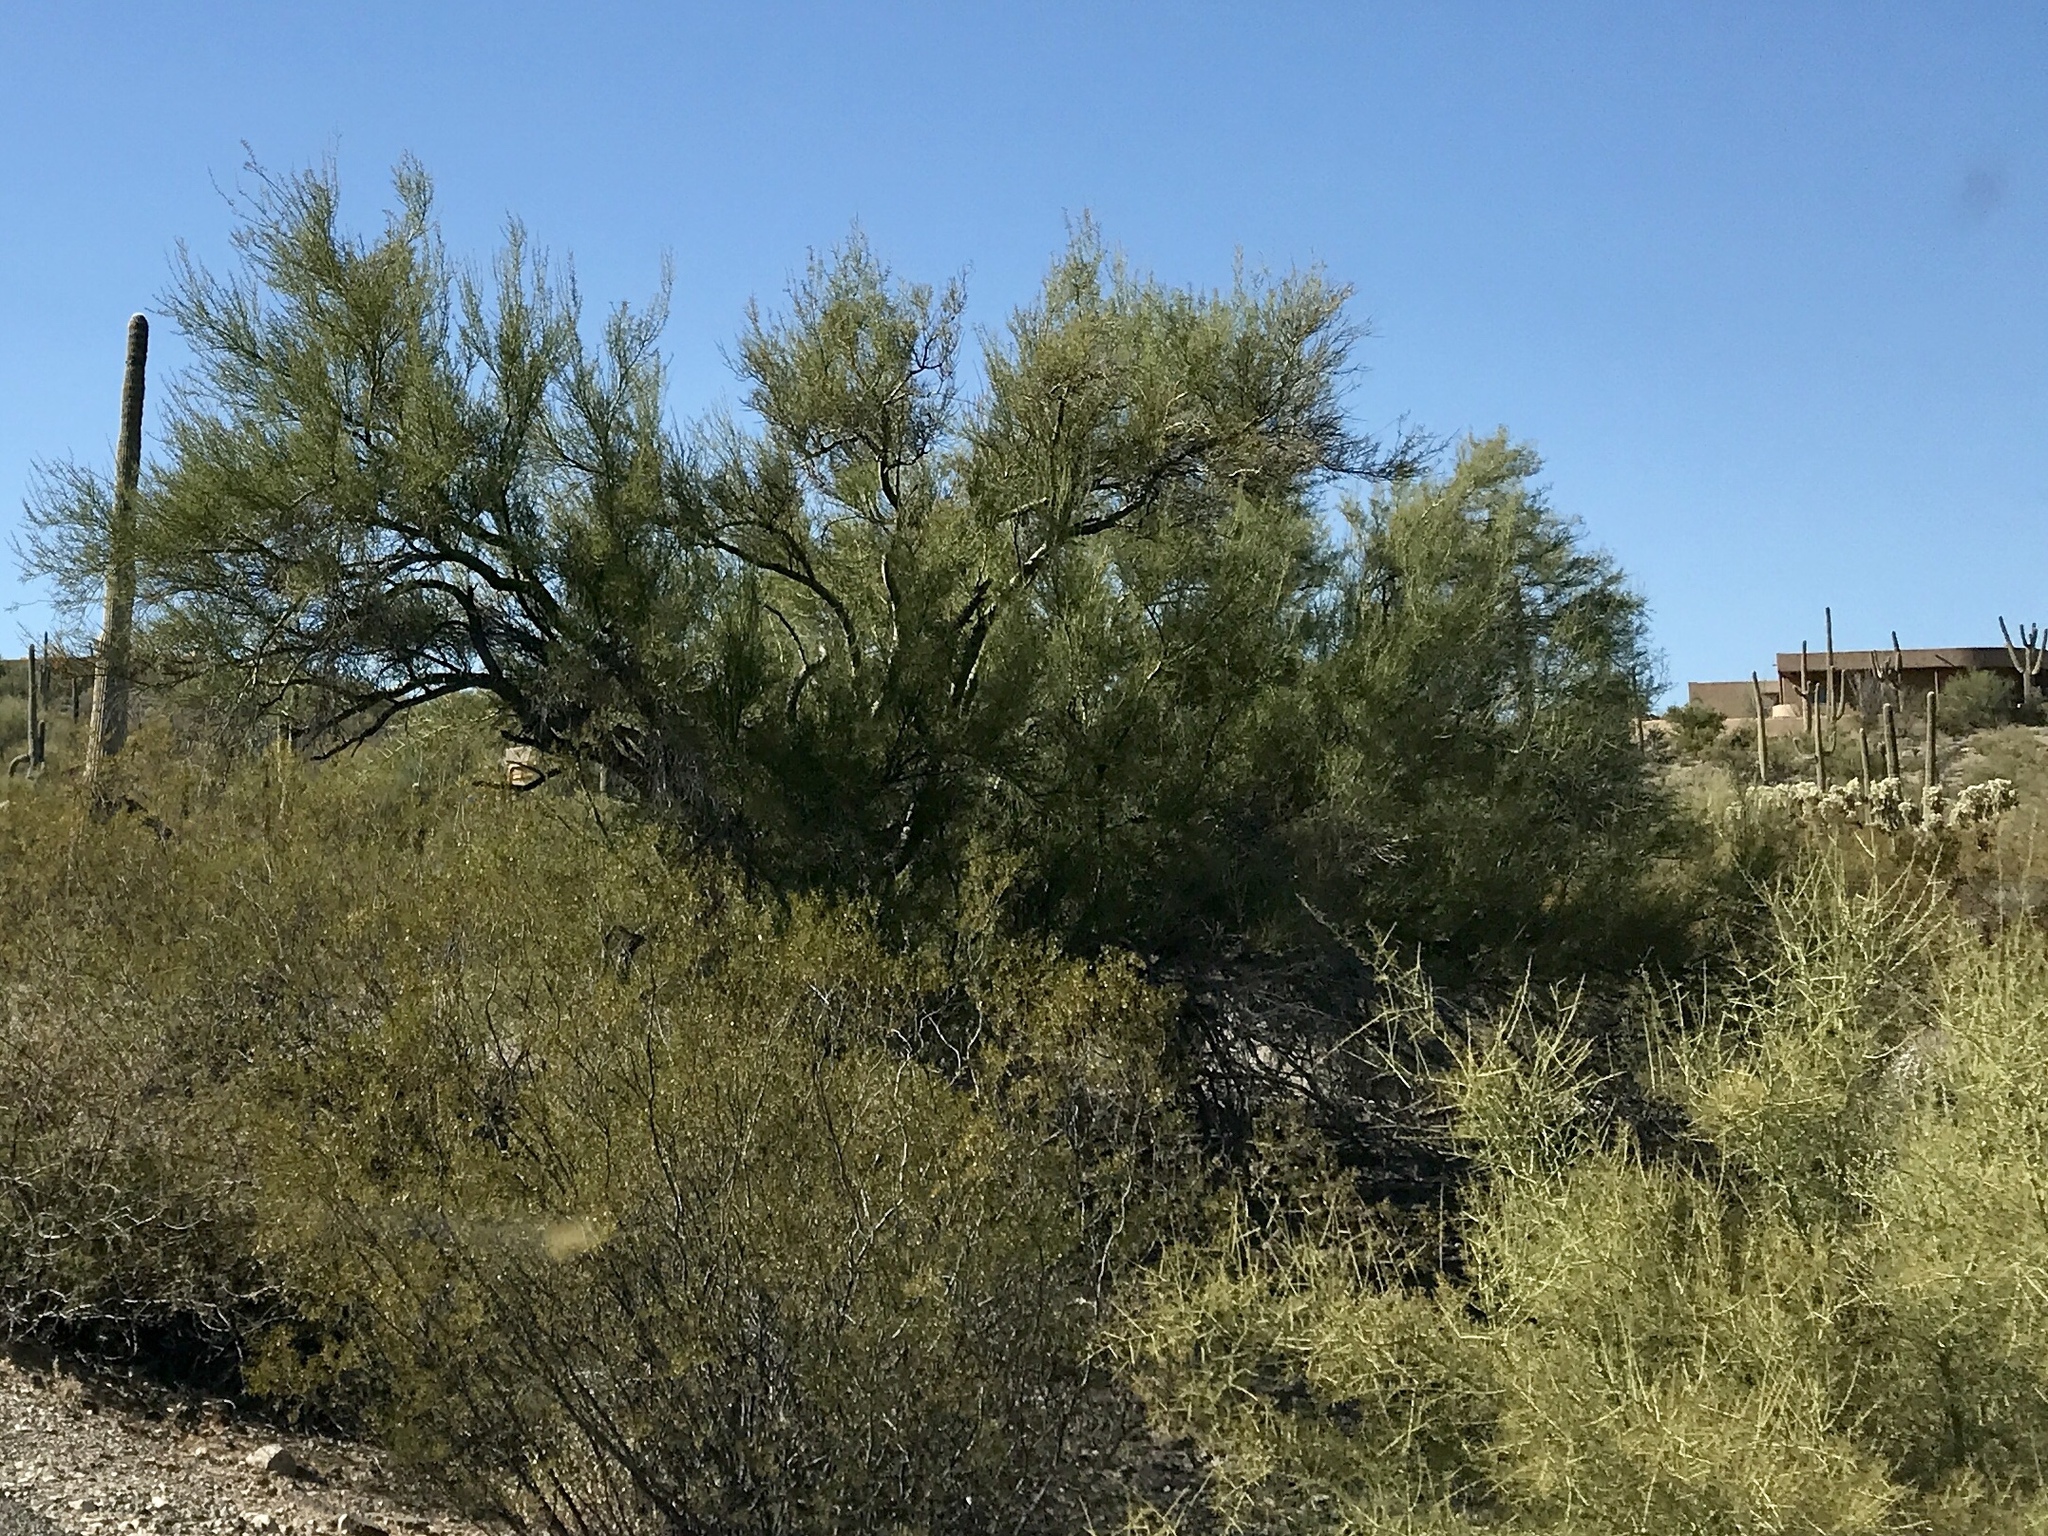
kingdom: Plantae
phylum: Tracheophyta
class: Magnoliopsida
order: Zygophyllales
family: Zygophyllaceae
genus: Larrea
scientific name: Larrea tridentata
